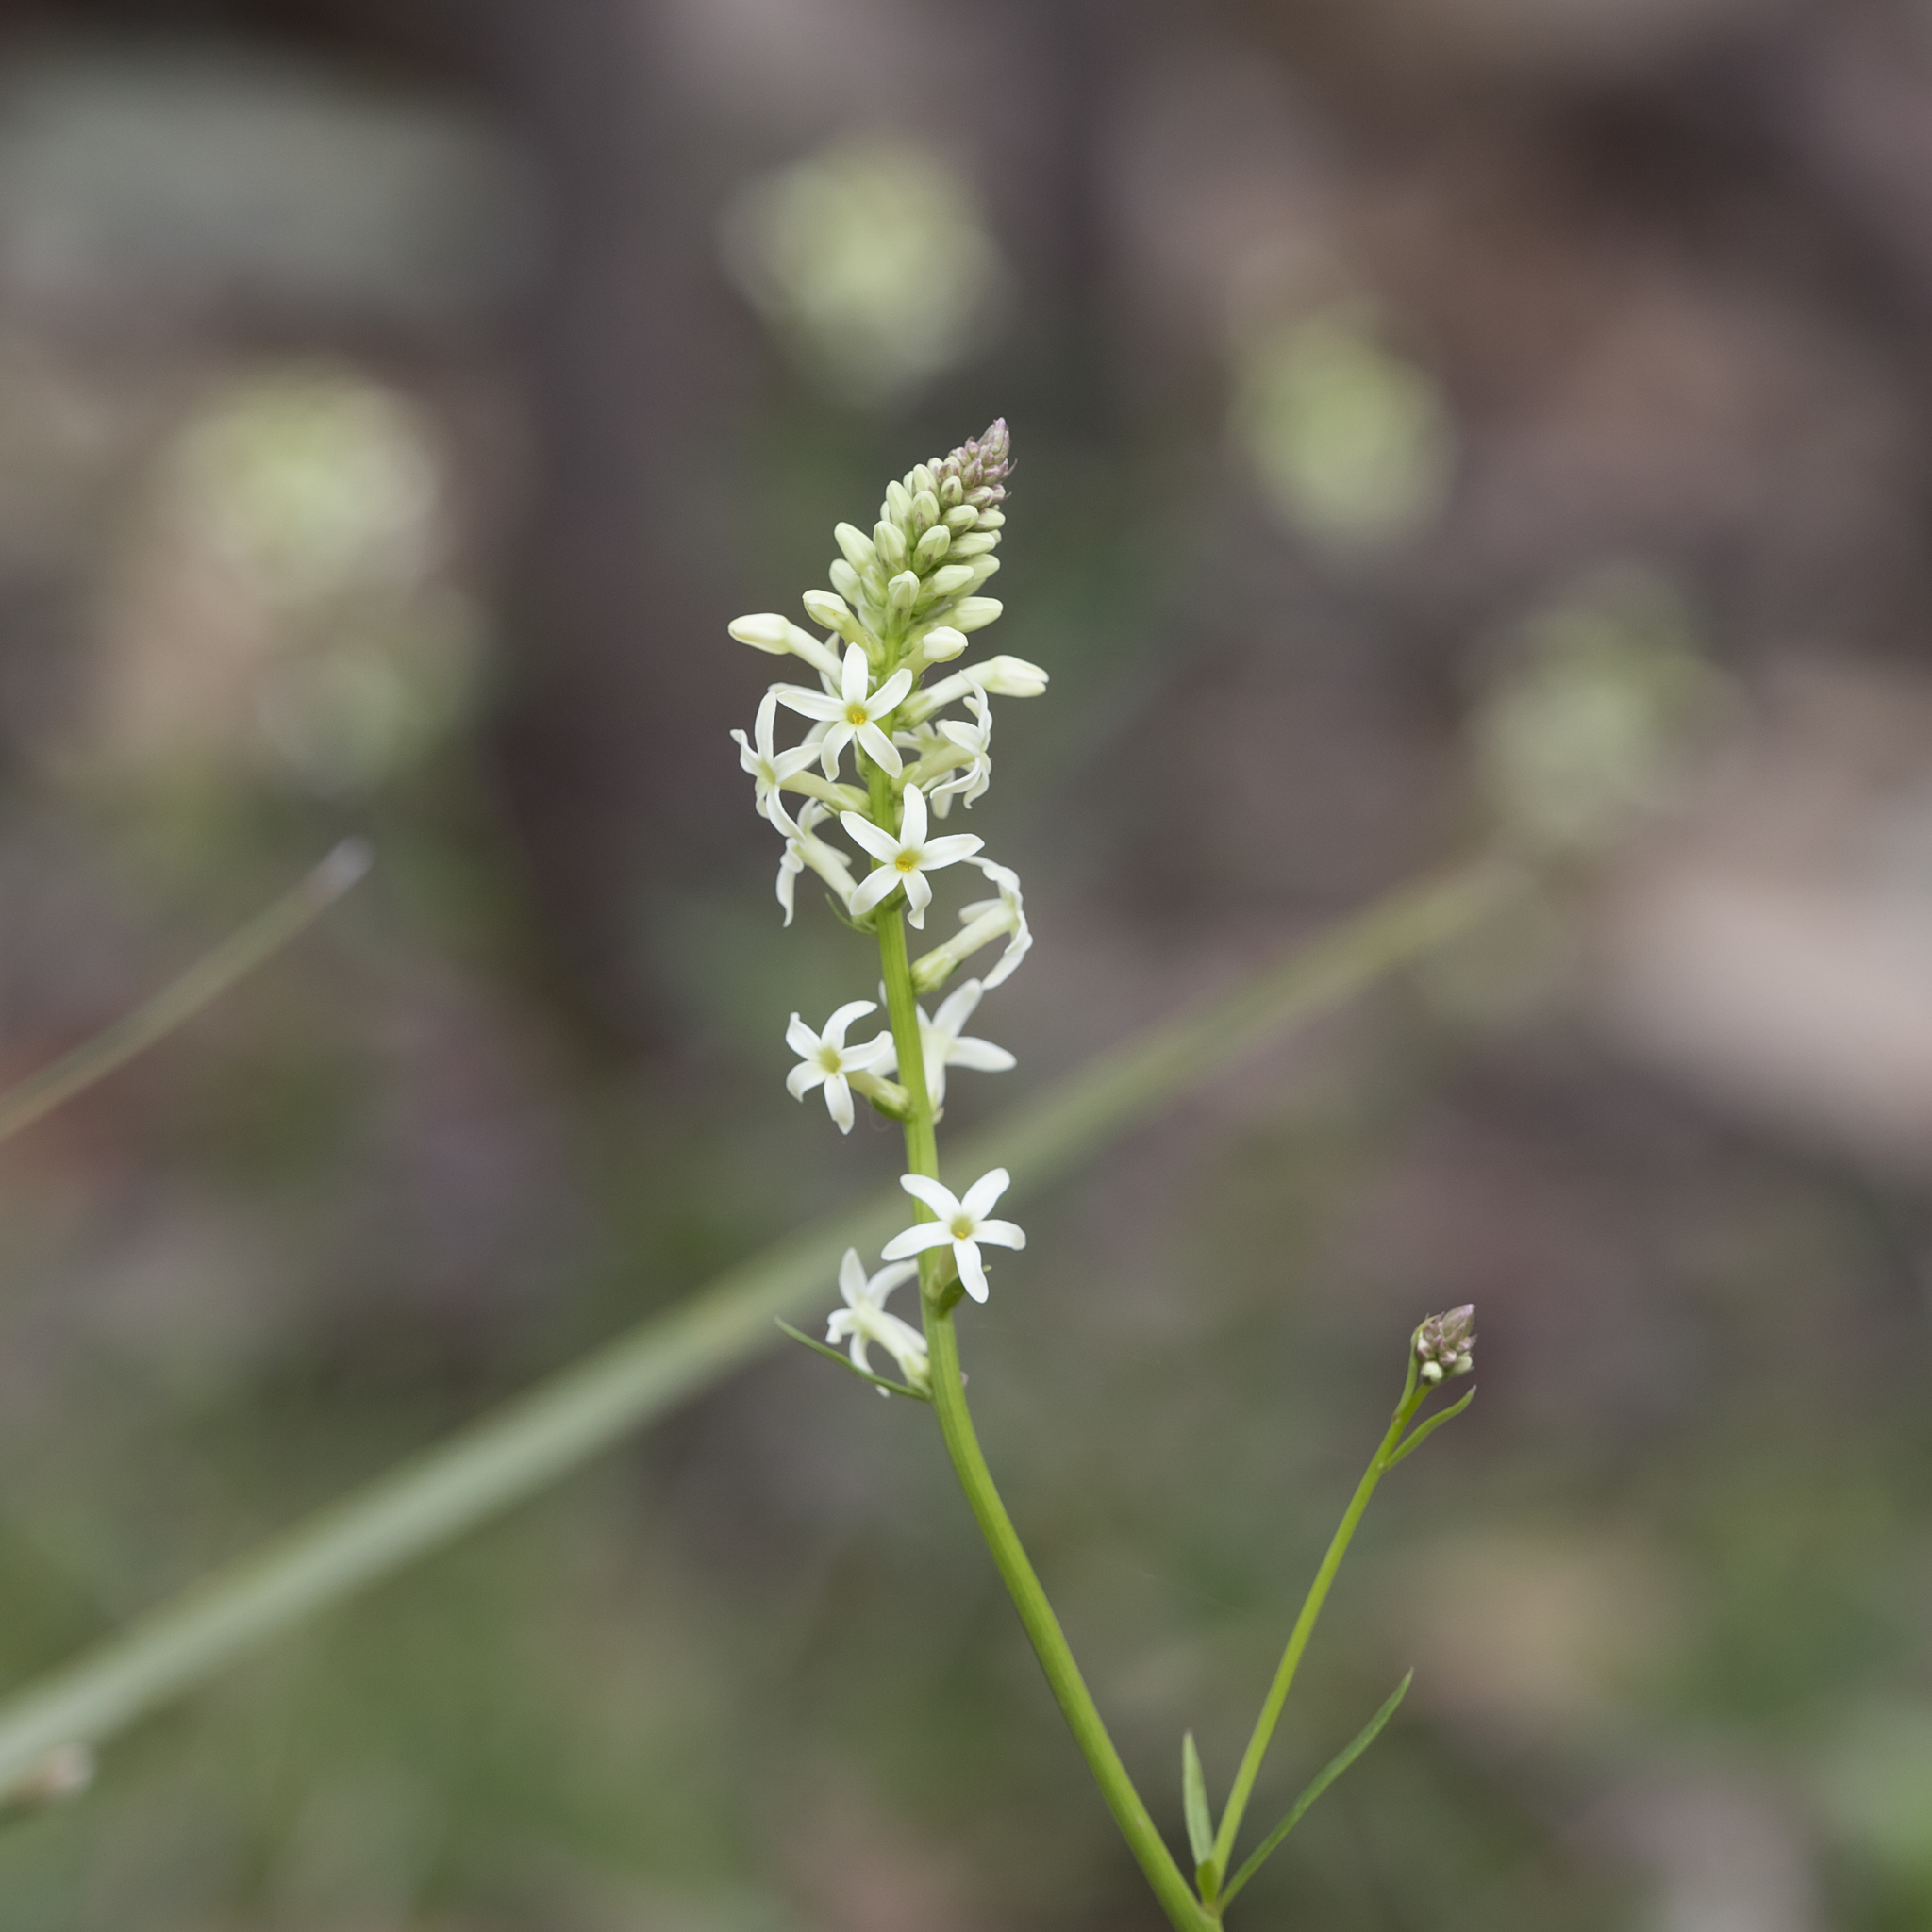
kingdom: Plantae
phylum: Tracheophyta
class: Magnoliopsida
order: Celastrales
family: Celastraceae
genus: Stackhousia
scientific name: Stackhousia monogyna
